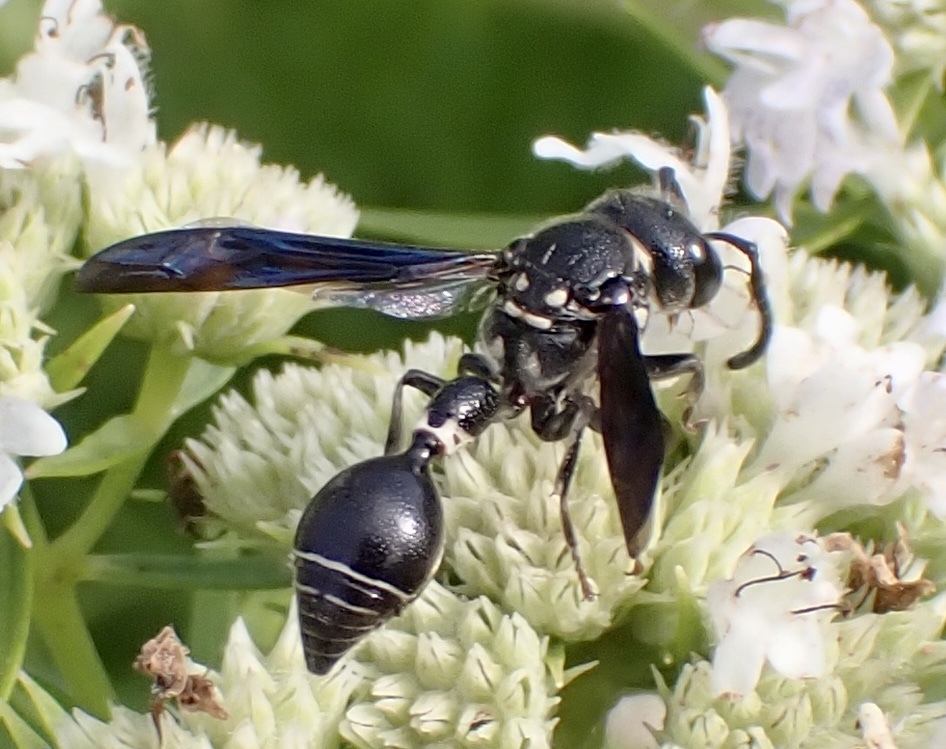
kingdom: Animalia
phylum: Arthropoda
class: Insecta
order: Hymenoptera
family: Eumenidae
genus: Zethus
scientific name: Zethus spinipes
